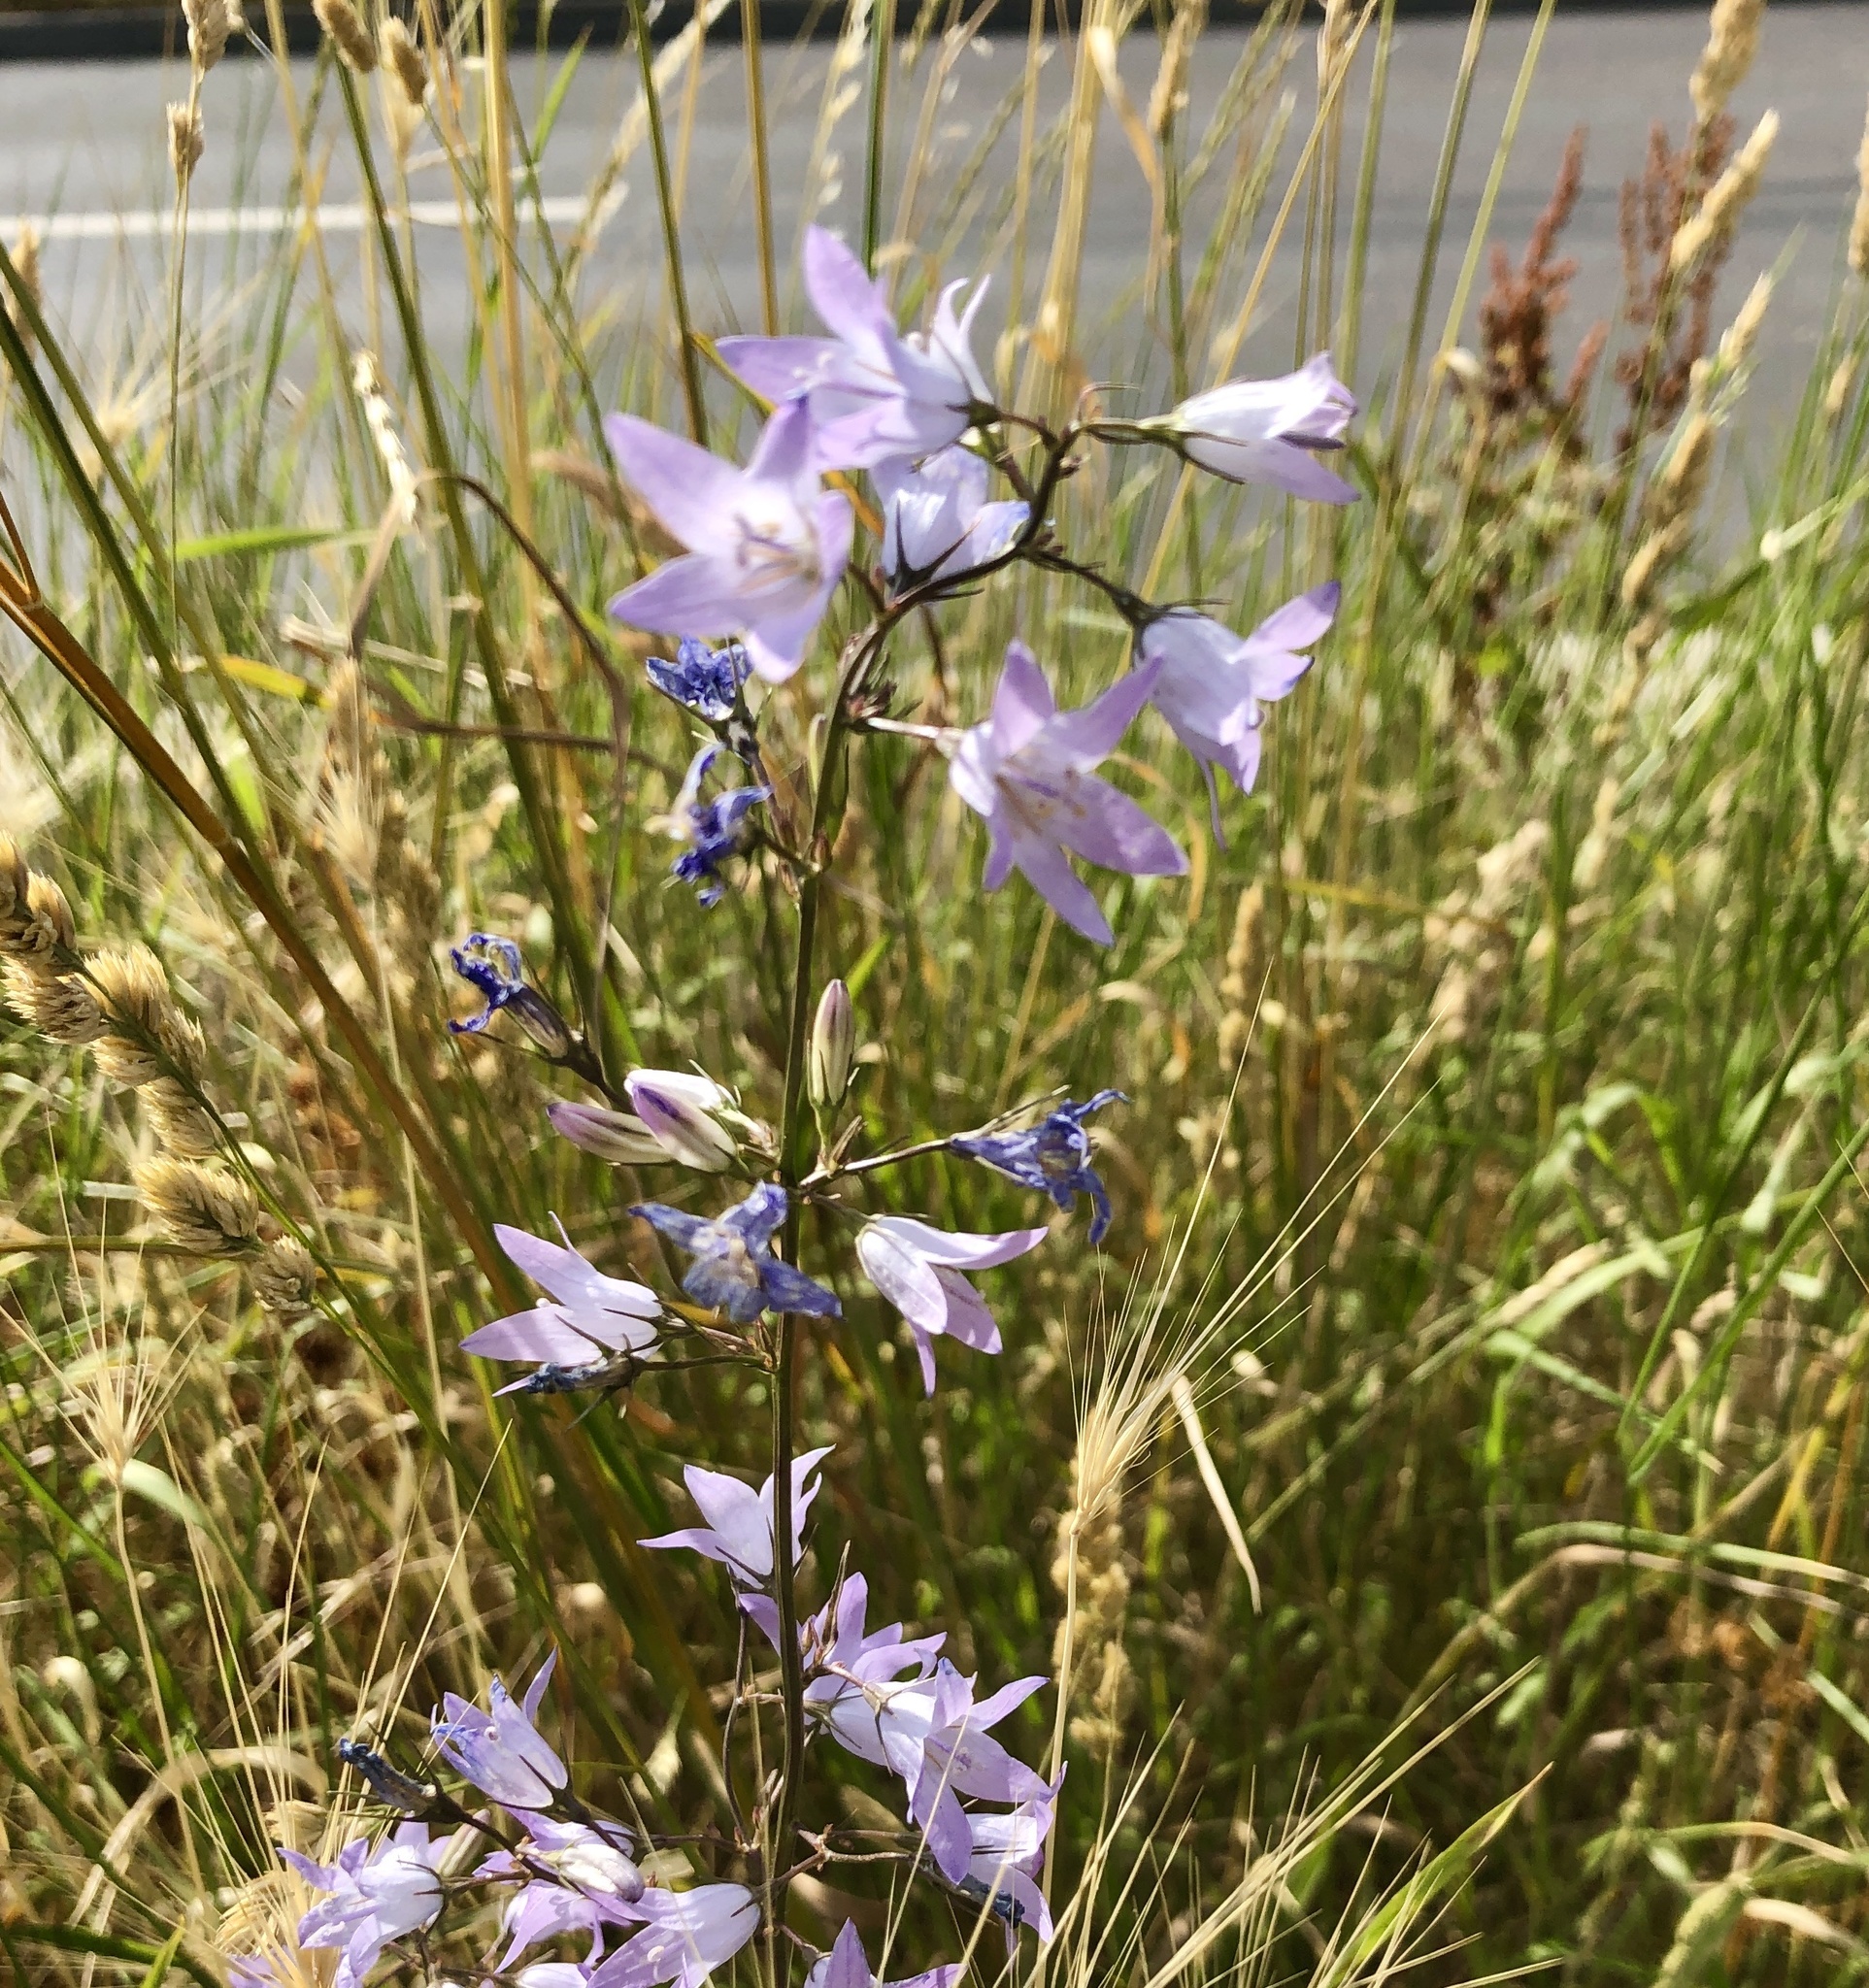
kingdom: Plantae
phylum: Tracheophyta
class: Magnoliopsida
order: Asterales
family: Campanulaceae
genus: Campanula
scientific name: Campanula rapunculus
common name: Rampion bellflower
